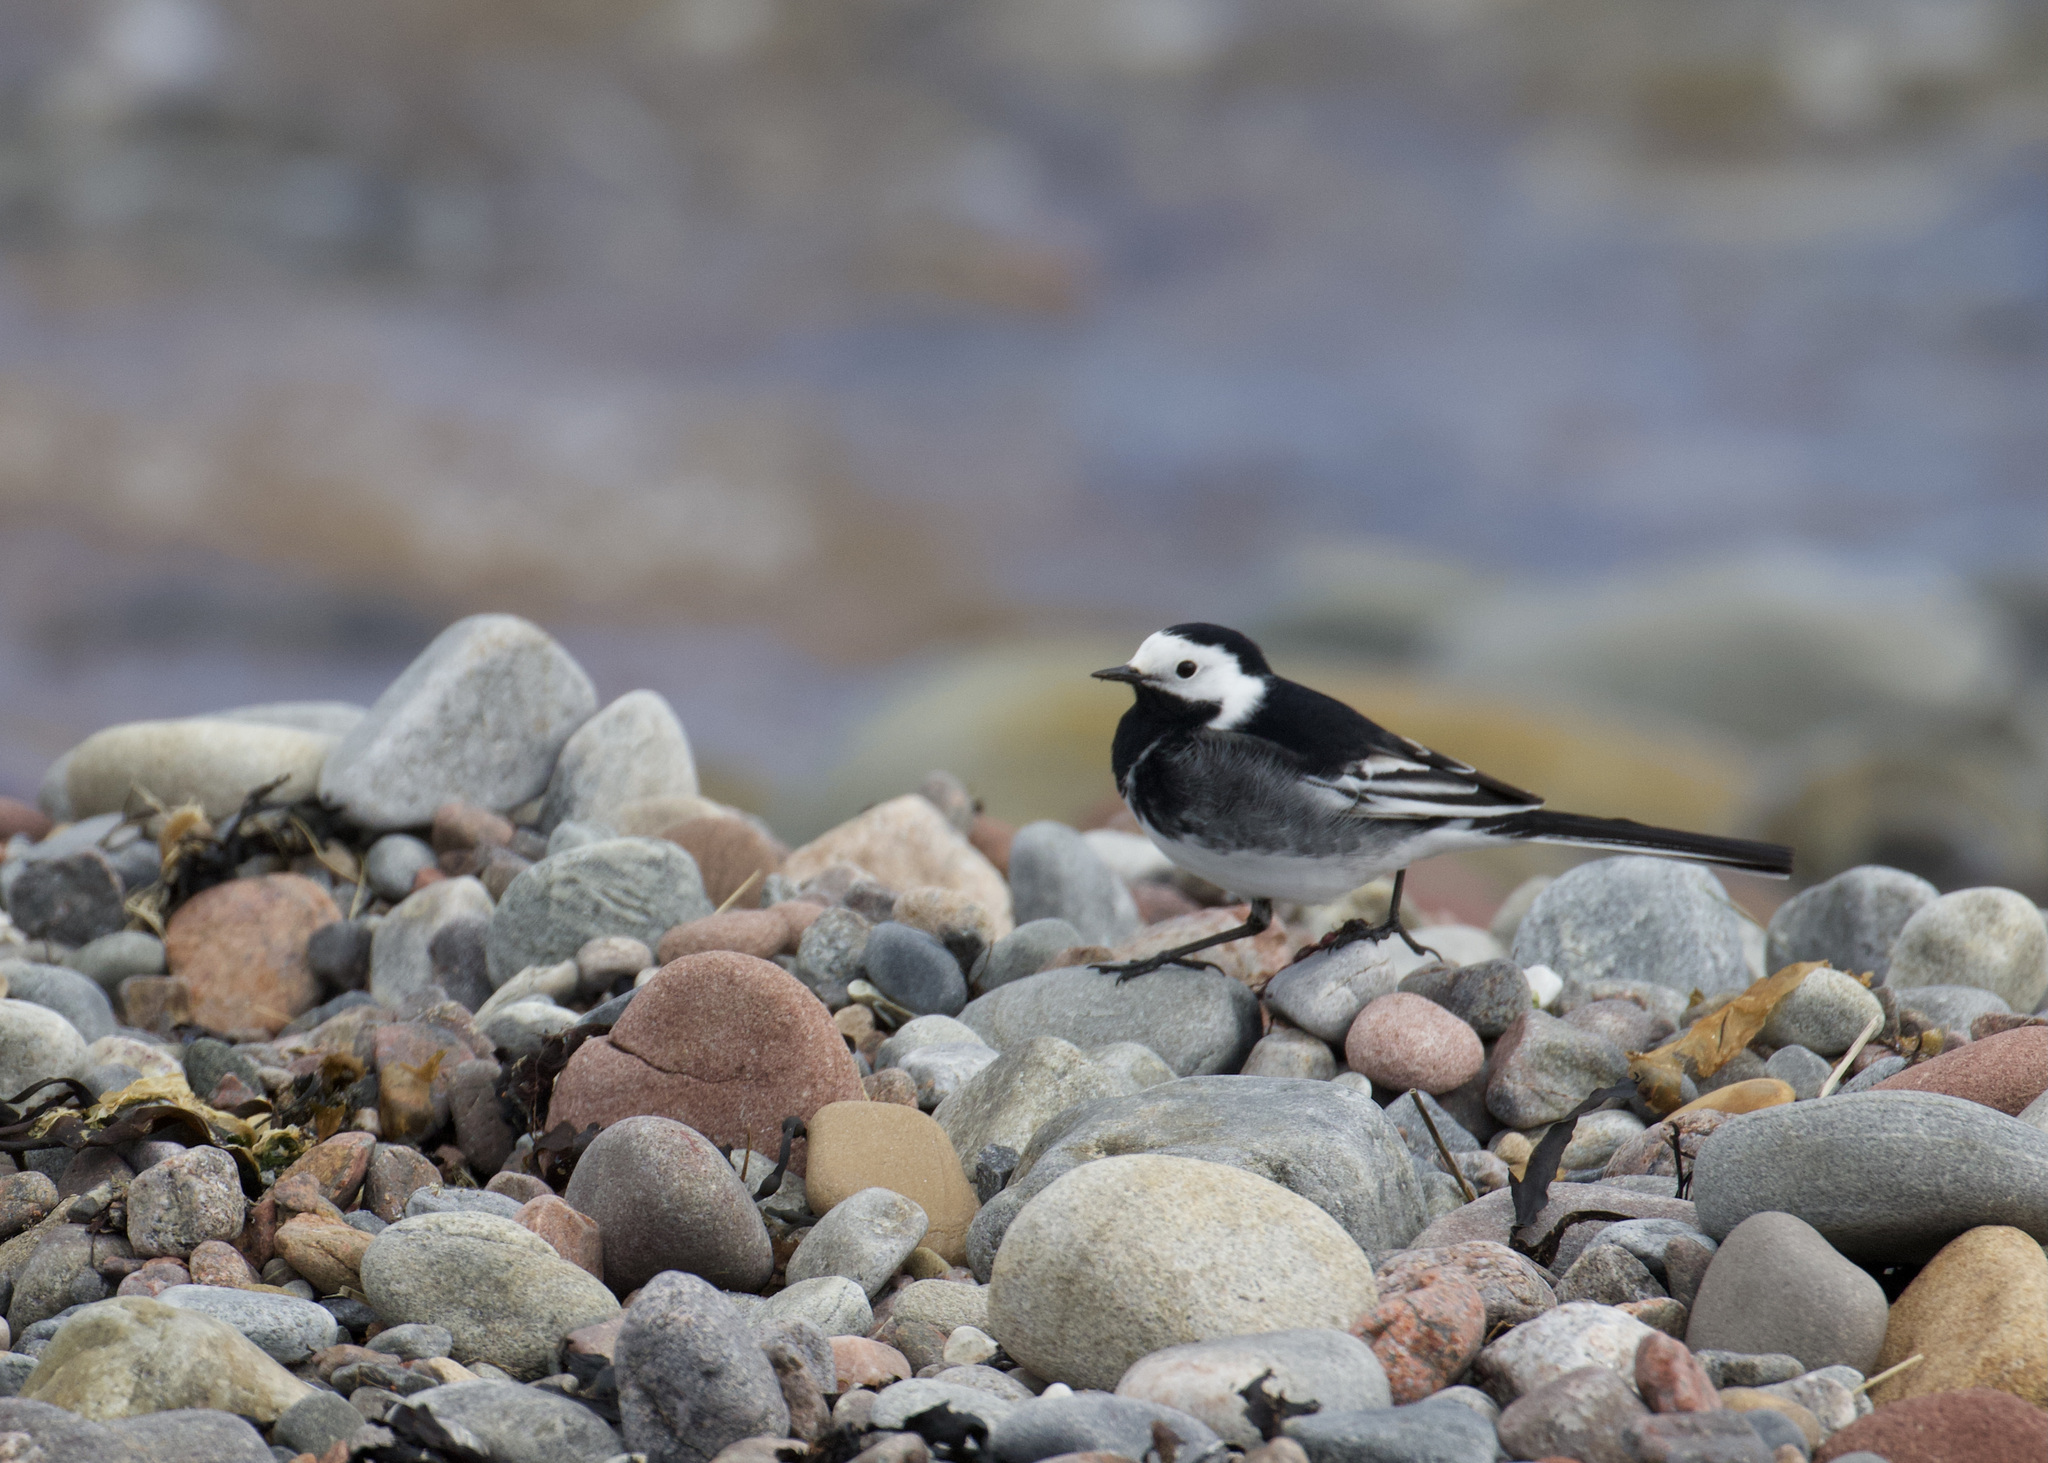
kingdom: Animalia
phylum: Chordata
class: Aves
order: Passeriformes
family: Motacillidae
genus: Motacilla
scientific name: Motacilla alba
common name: White wagtail
